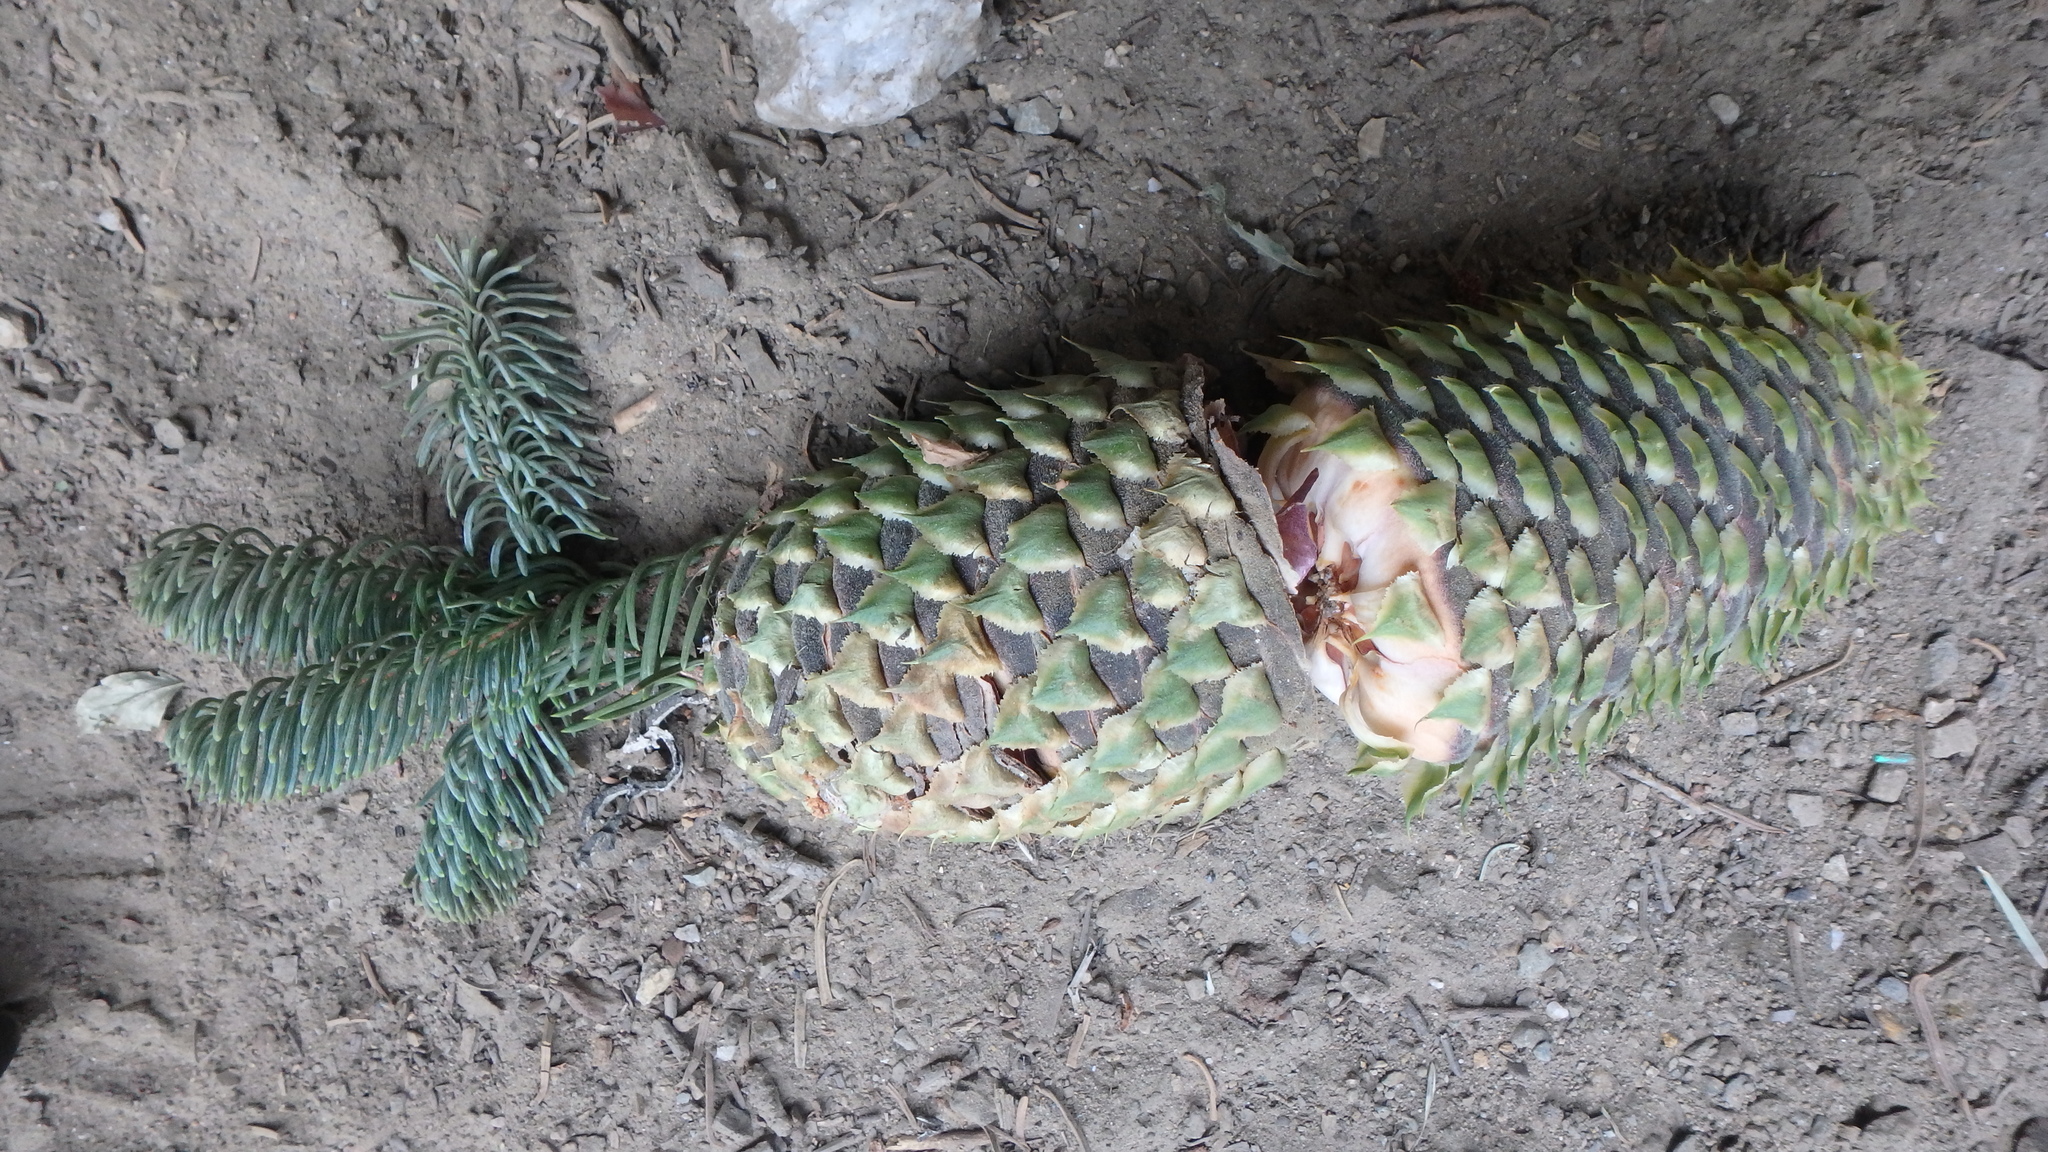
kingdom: Plantae
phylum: Tracheophyta
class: Pinopsida
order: Pinales
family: Pinaceae
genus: Abies
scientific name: Abies magnifica bis
